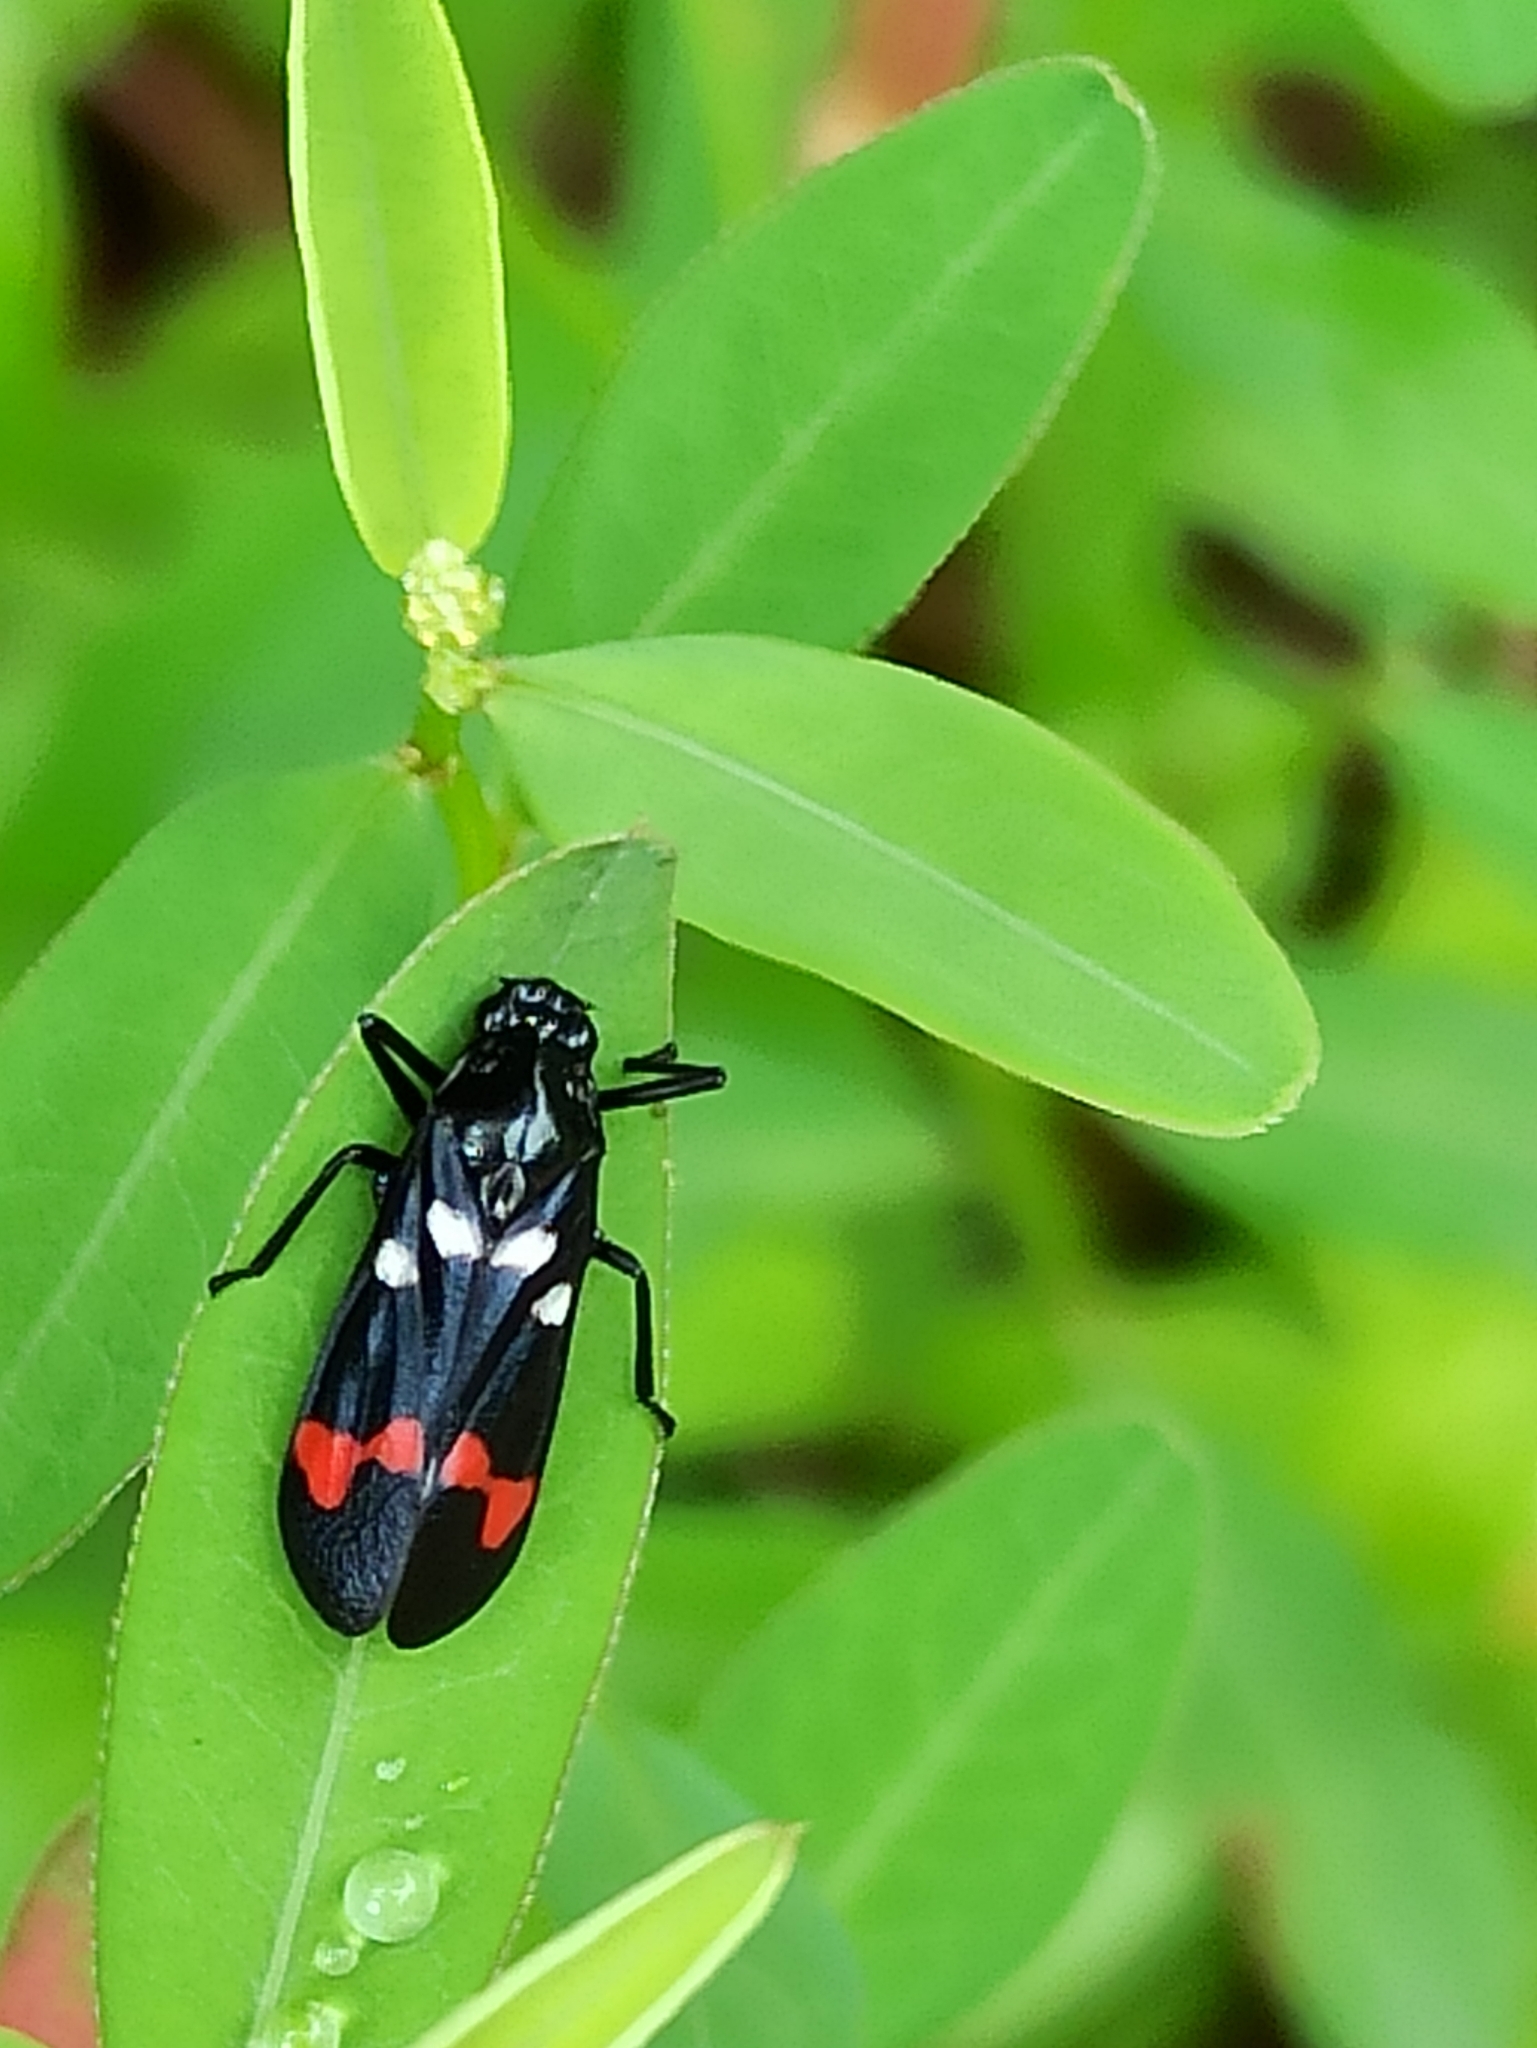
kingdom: Animalia
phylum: Arthropoda
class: Insecta
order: Hemiptera
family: Cercopidae
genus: Callitettix
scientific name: Callitettix versicolor
